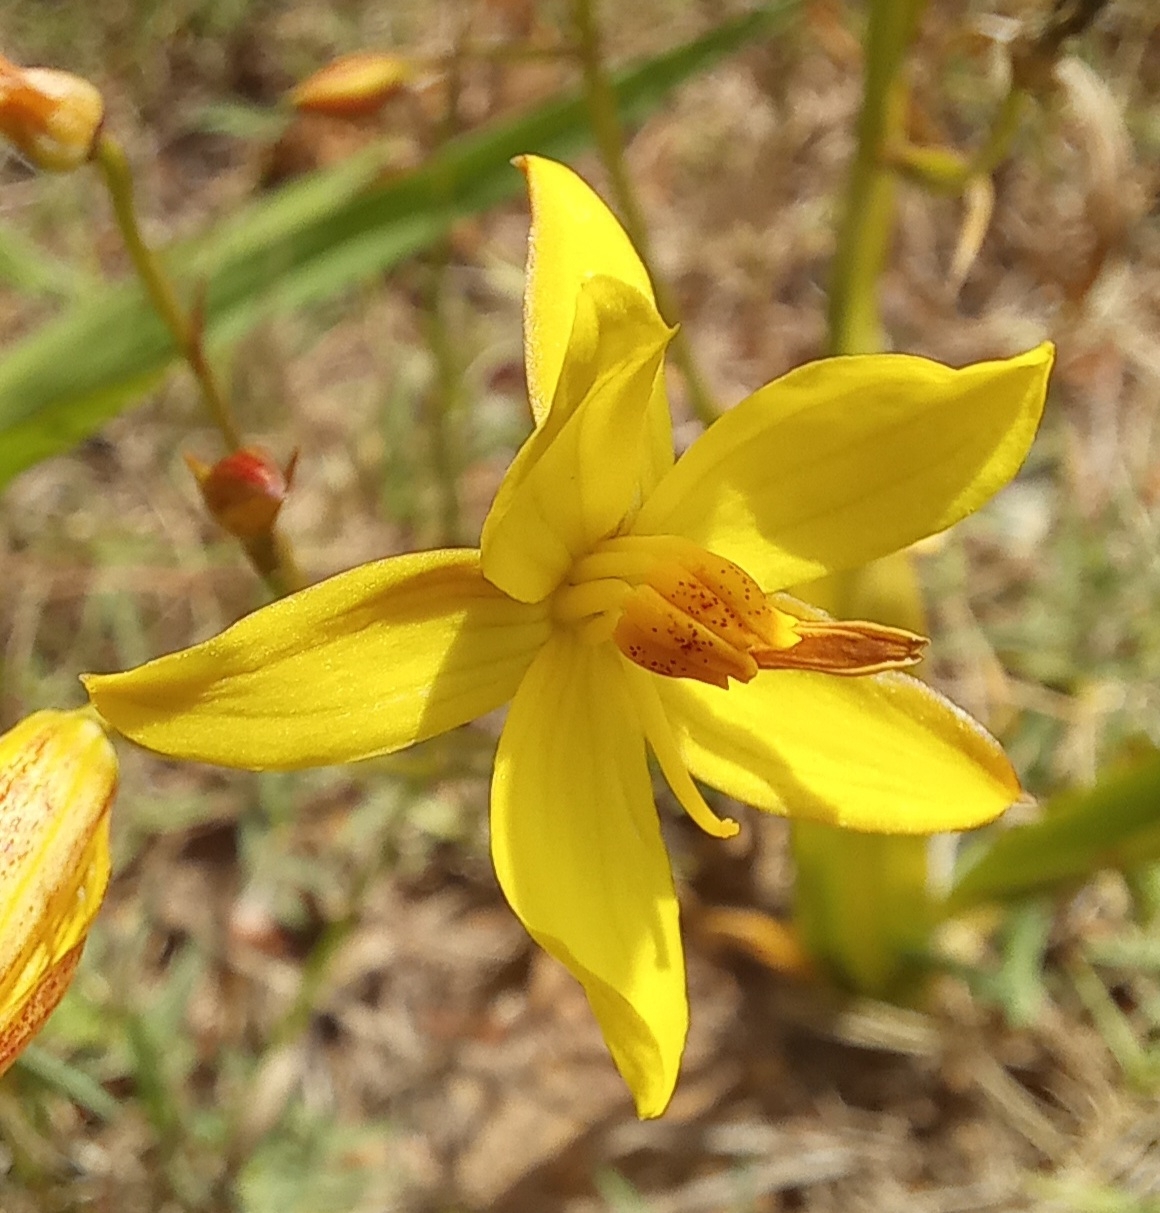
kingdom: Plantae
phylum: Tracheophyta
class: Liliopsida
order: Asparagales
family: Tecophilaeaceae
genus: Cyanella
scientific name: Cyanella lutea
